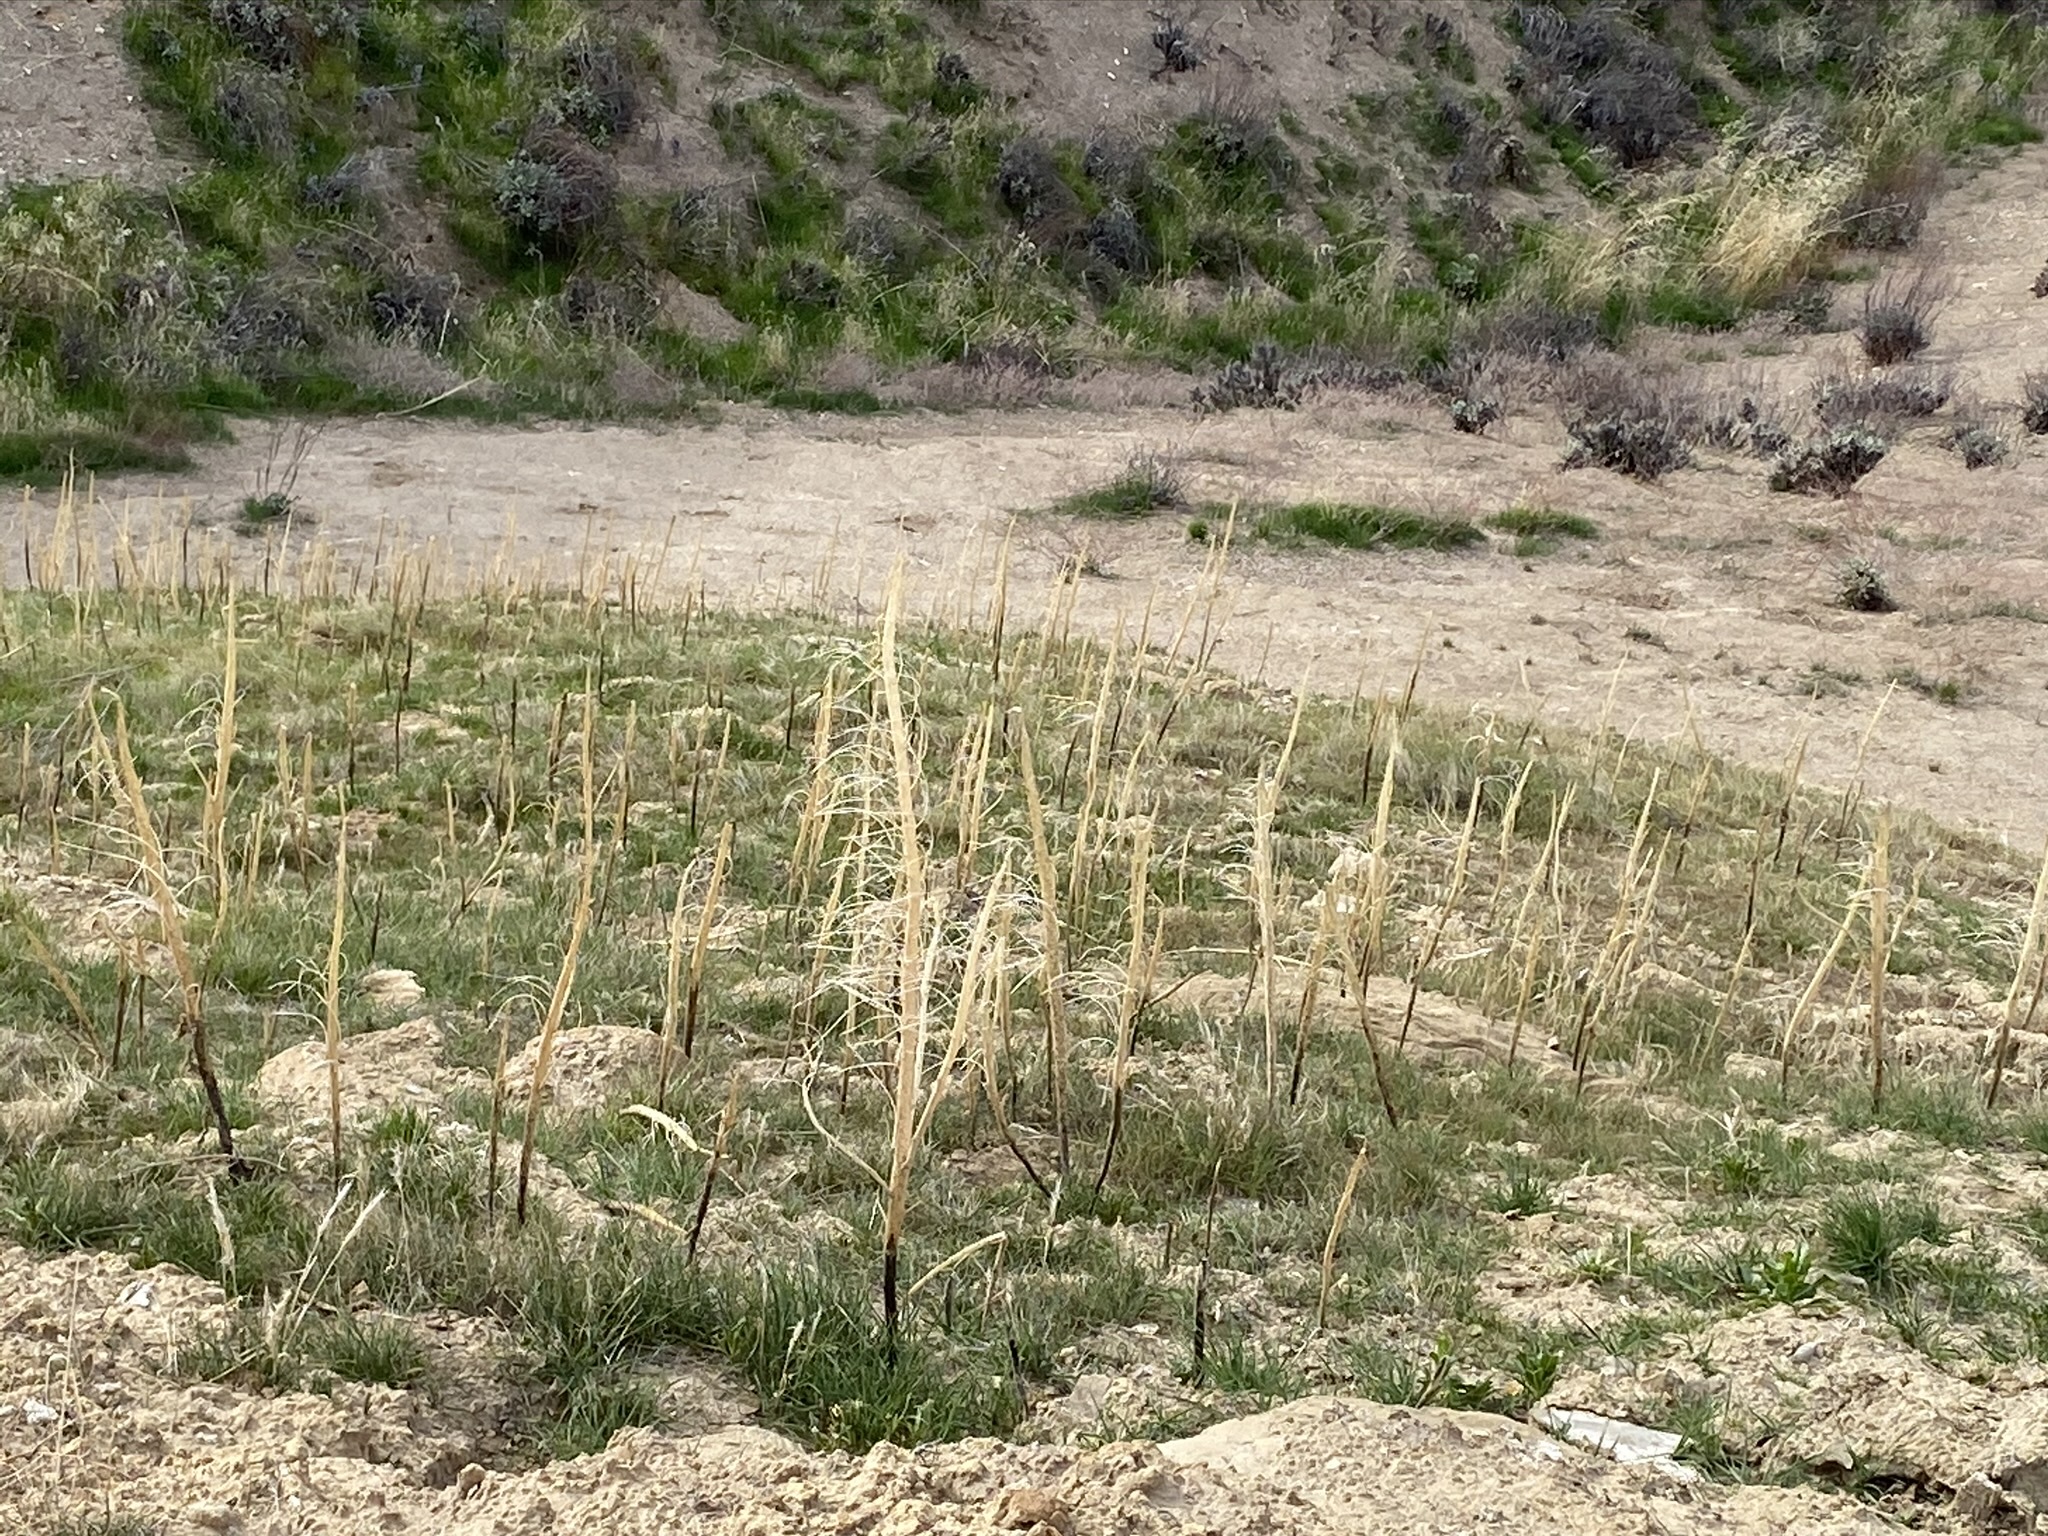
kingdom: Plantae
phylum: Tracheophyta
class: Magnoliopsida
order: Brassicales
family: Brassicaceae
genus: Streptanthus
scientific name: Streptanthus inflatus
